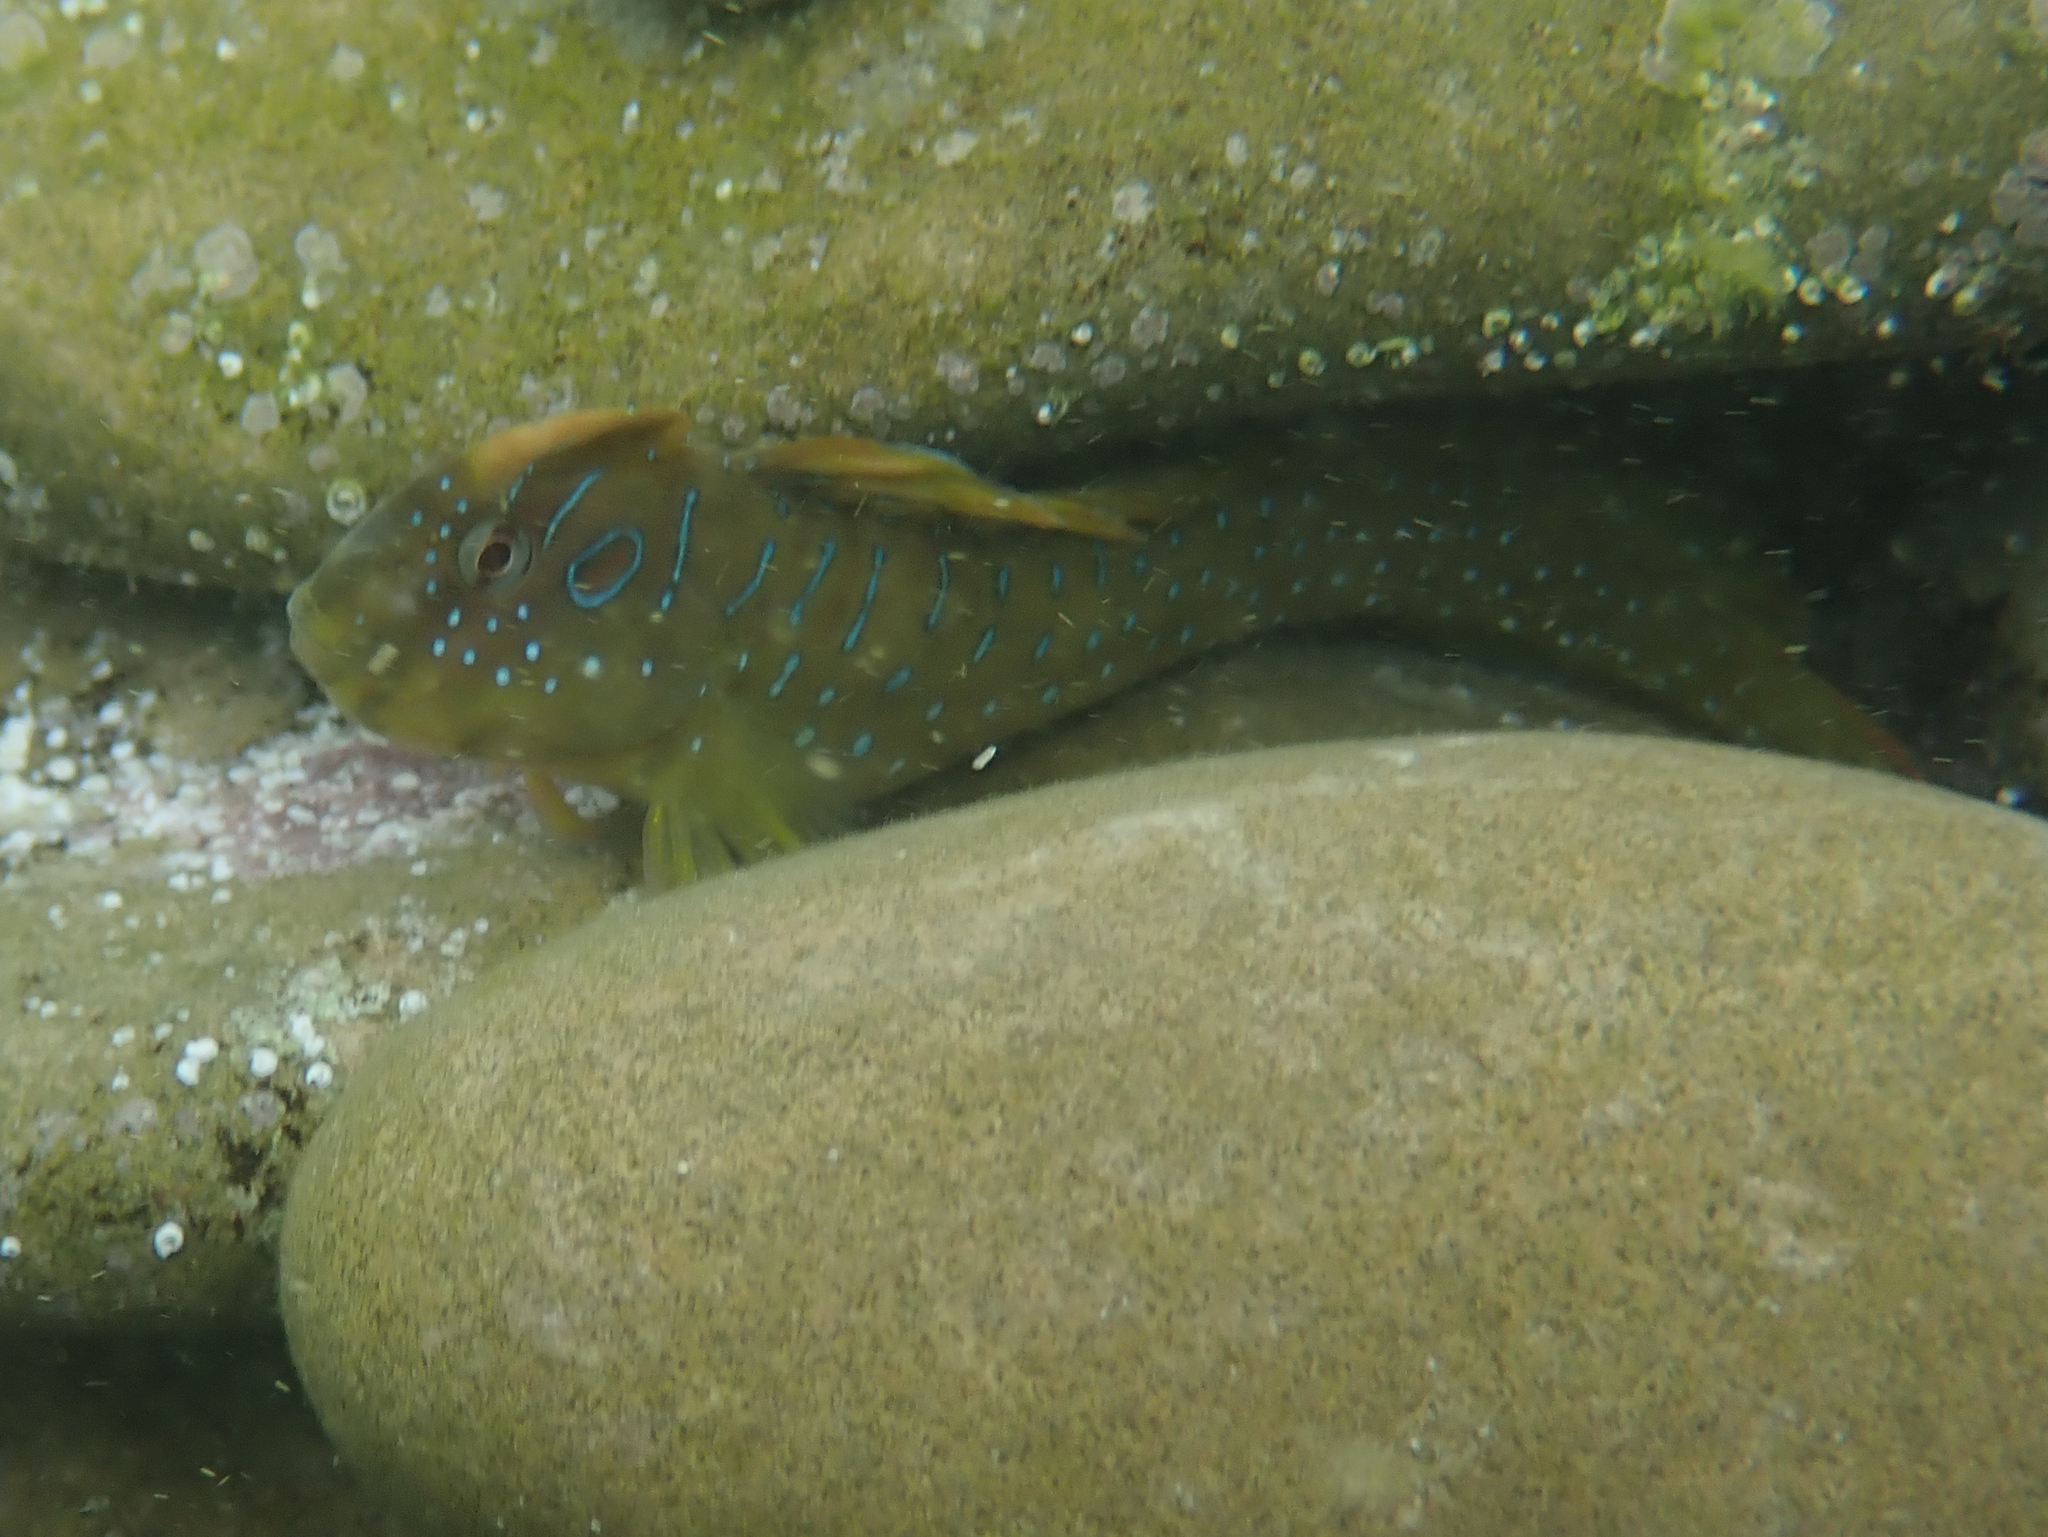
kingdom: Animalia
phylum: Chordata
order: Perciformes
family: Blenniidae
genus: Salaria
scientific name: Salaria pavo
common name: Peacock blenny
